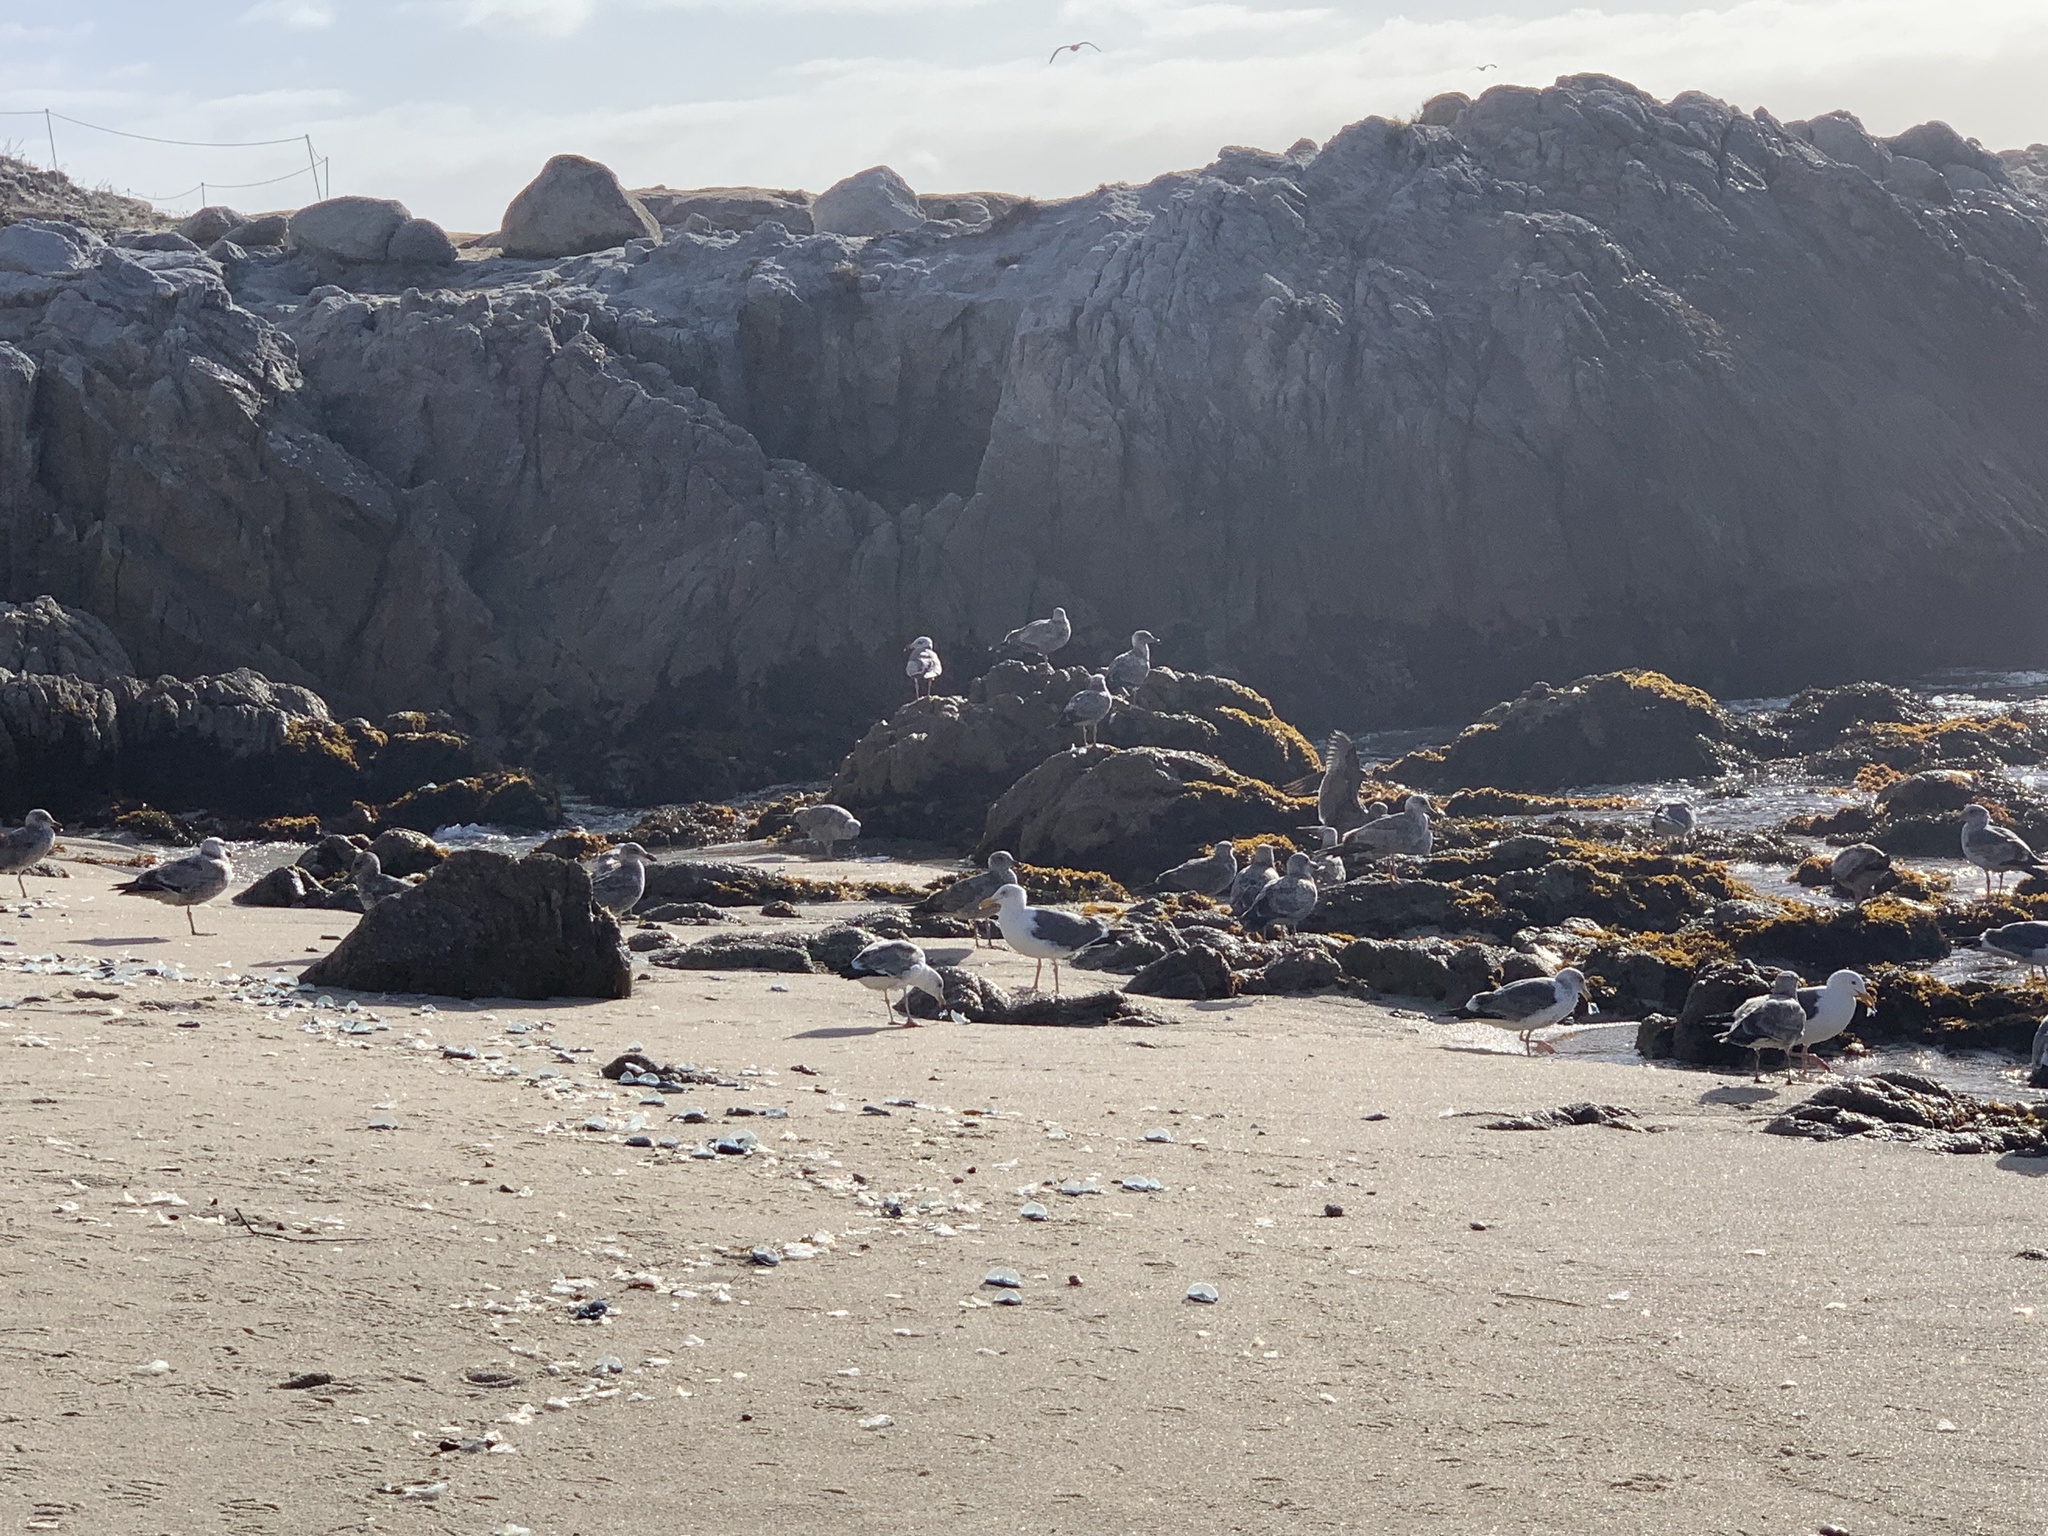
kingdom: Animalia
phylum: Chordata
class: Aves
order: Charadriiformes
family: Laridae
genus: Larus
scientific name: Larus occidentalis
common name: Western gull
